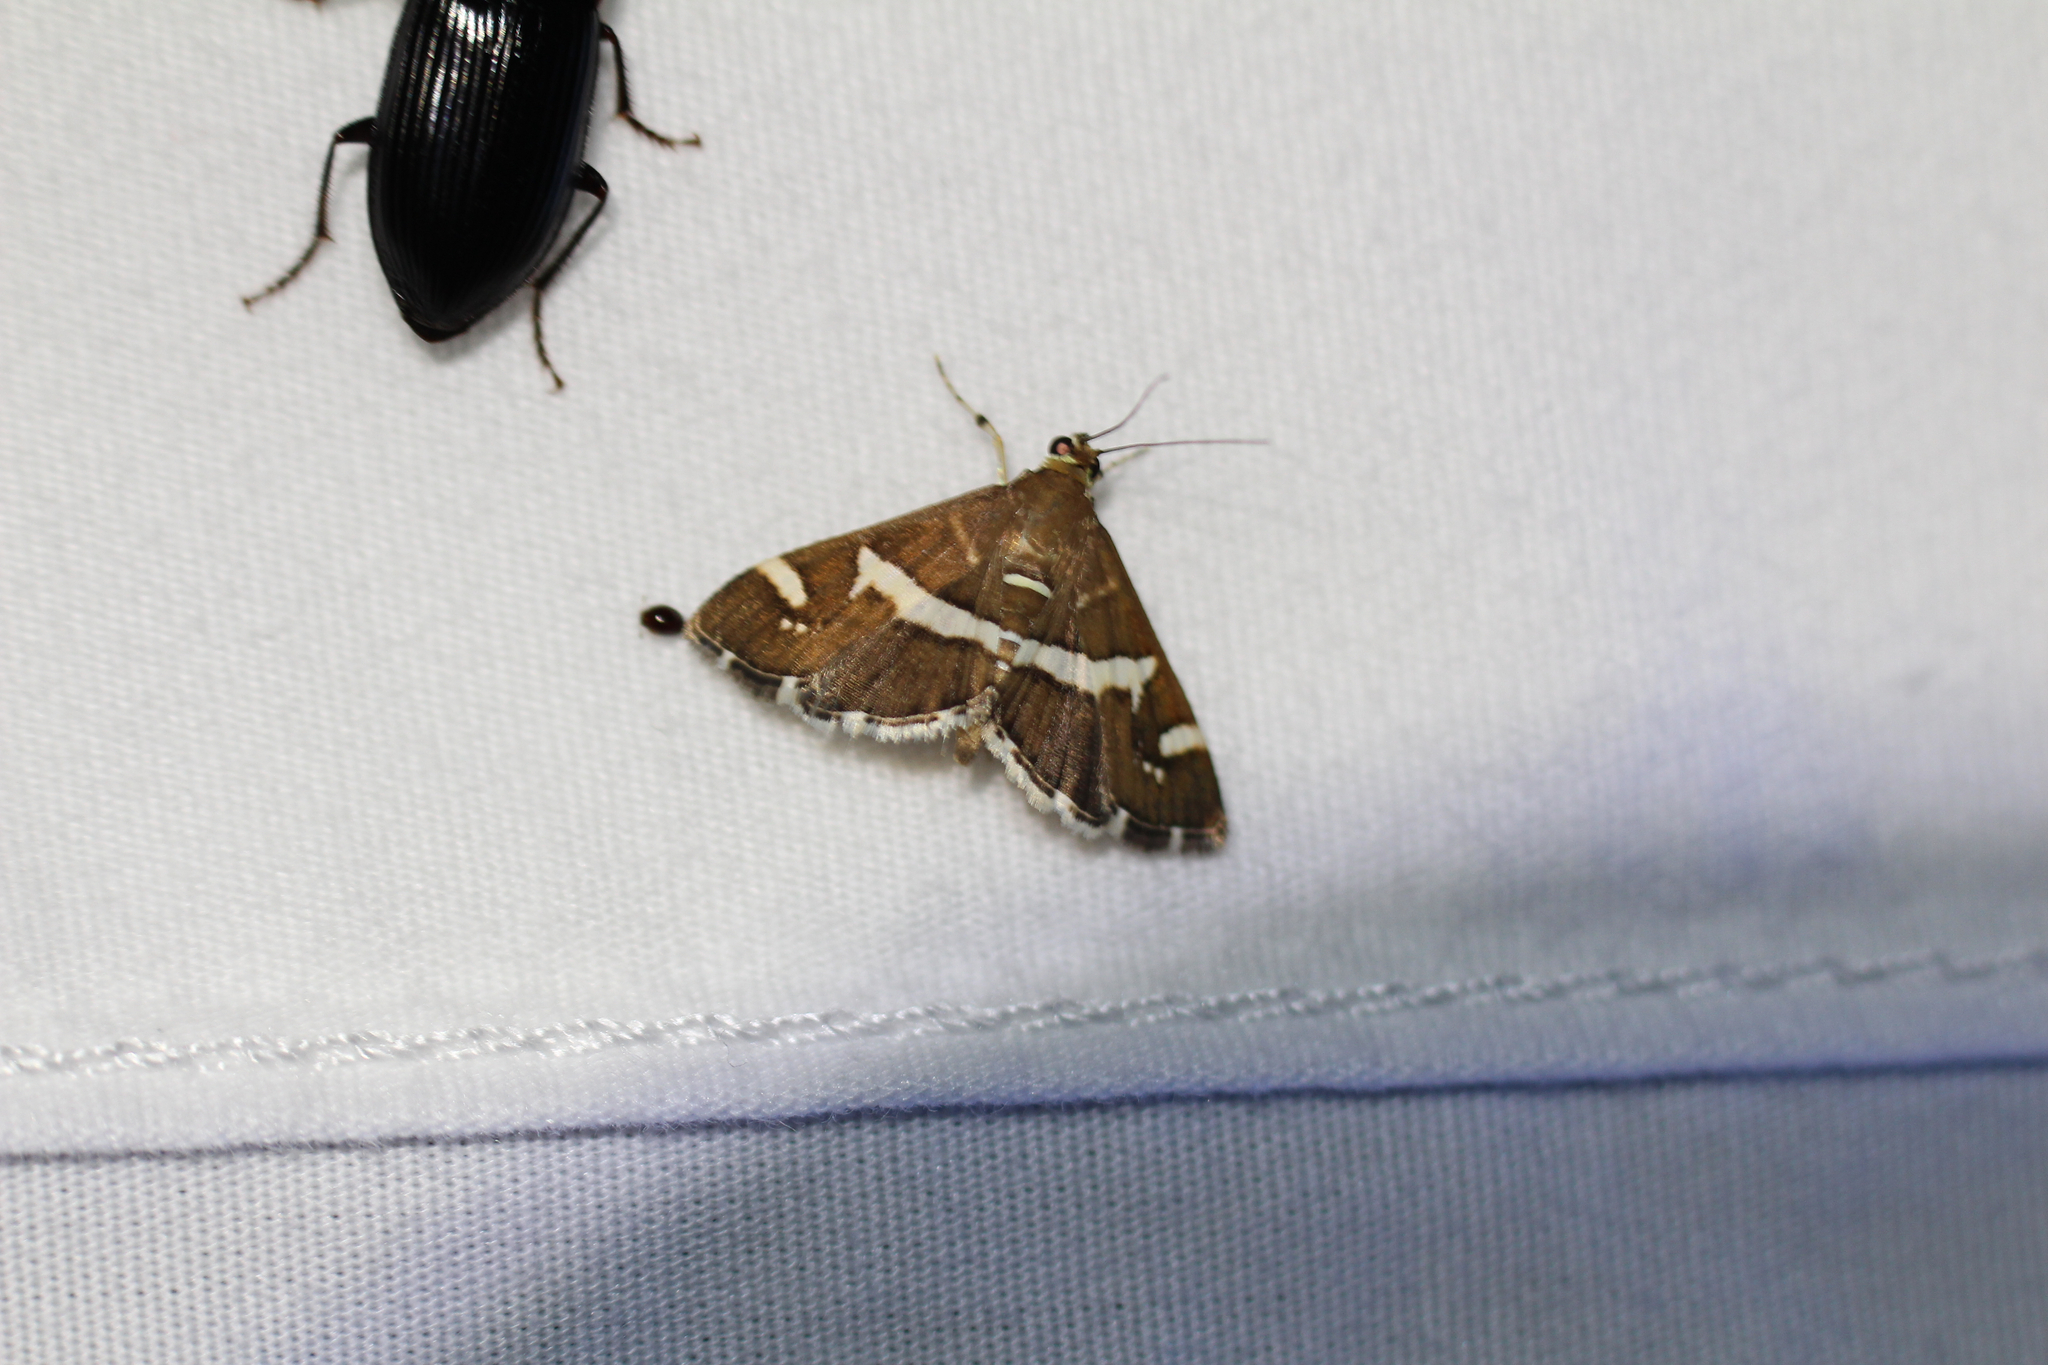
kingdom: Animalia
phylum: Arthropoda
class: Insecta
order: Lepidoptera
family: Crambidae
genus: Spoladea
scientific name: Spoladea recurvalis
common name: Beet webworm moth
